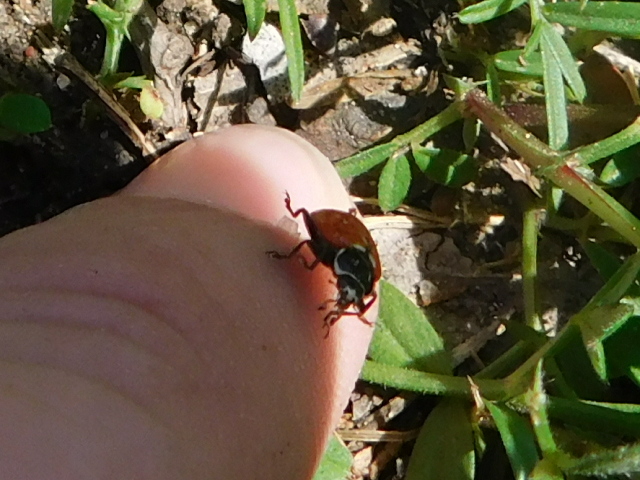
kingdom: Animalia
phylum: Arthropoda
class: Insecta
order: Coleoptera
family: Coccinellidae
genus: Hippodamia
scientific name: Hippodamia convergens
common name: Convergent lady beetle
